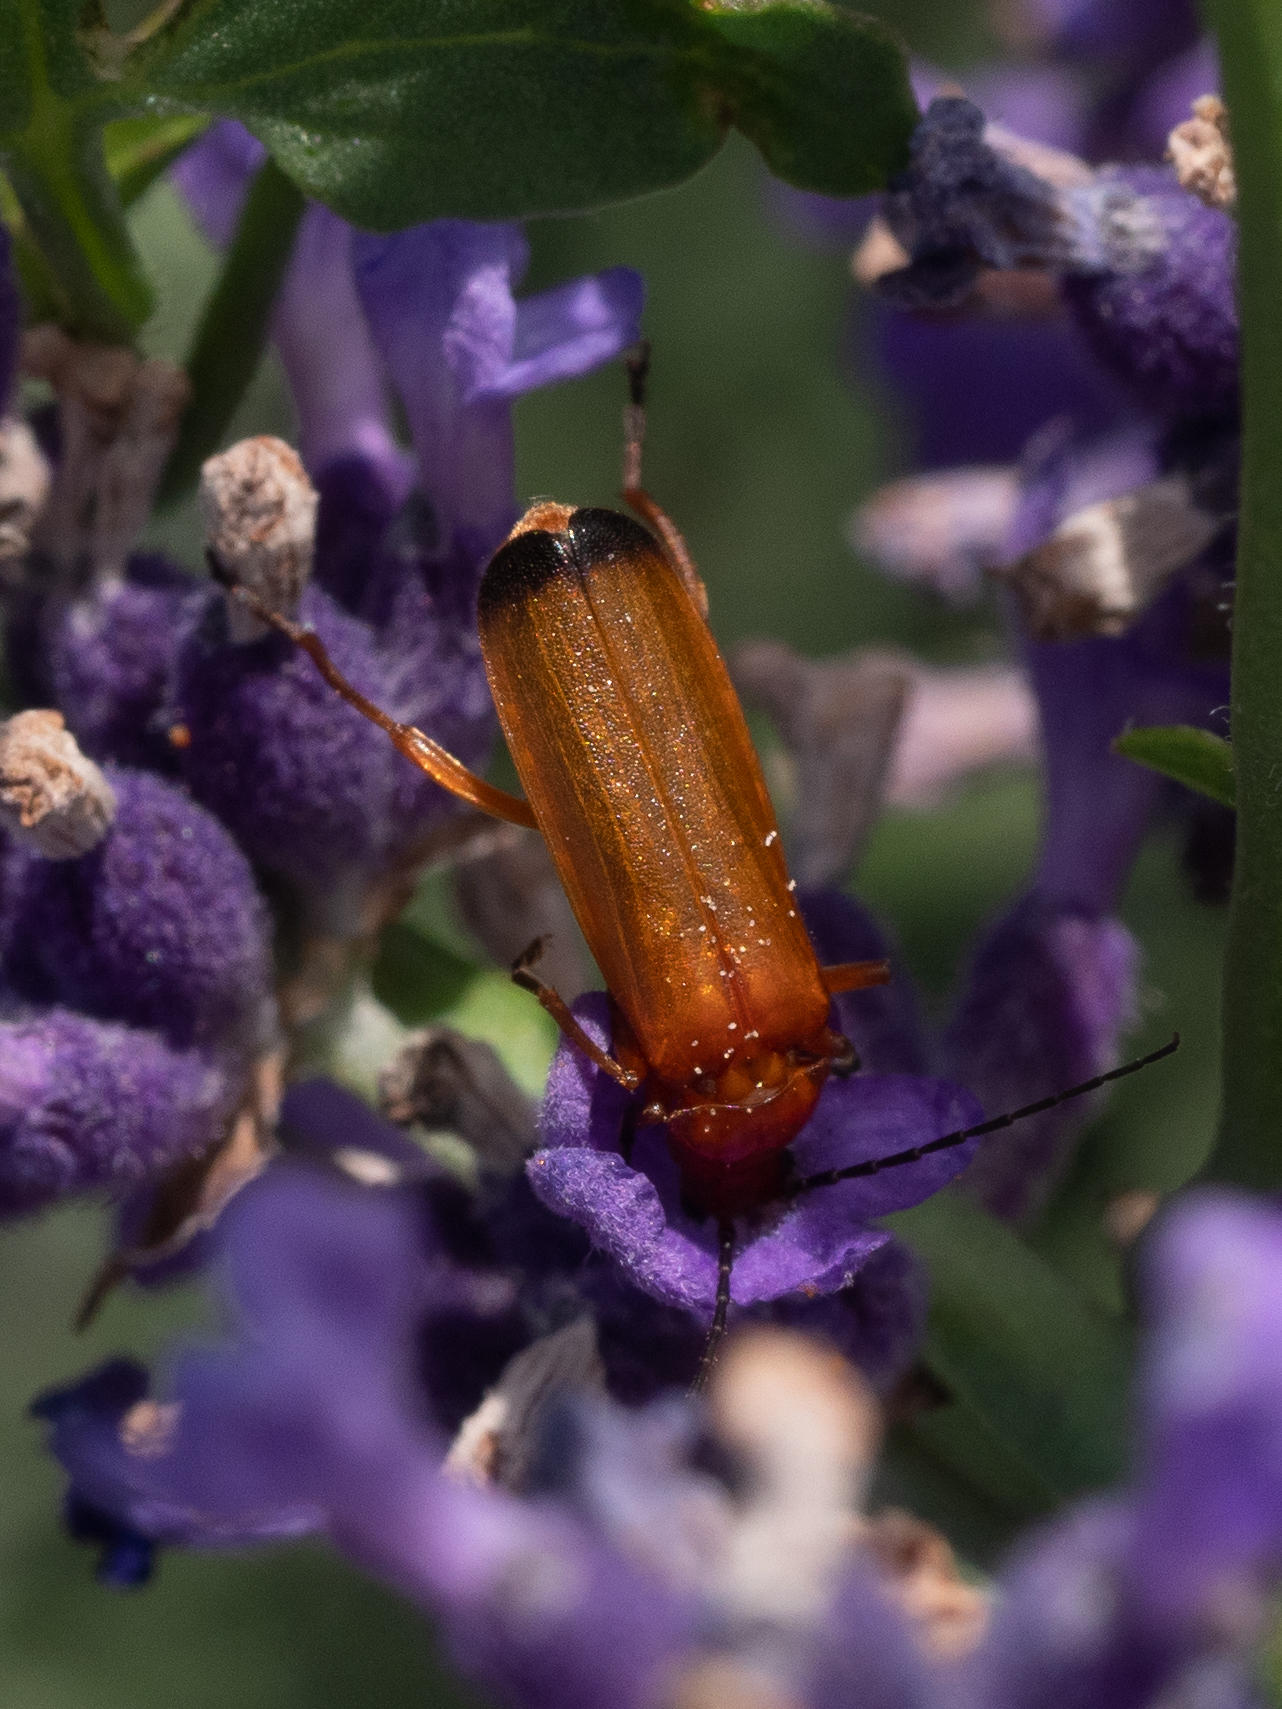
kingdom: Animalia
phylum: Arthropoda
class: Insecta
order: Coleoptera
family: Cantharidae
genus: Rhagonycha
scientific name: Rhagonycha fulva
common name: Common red soldier beetle
